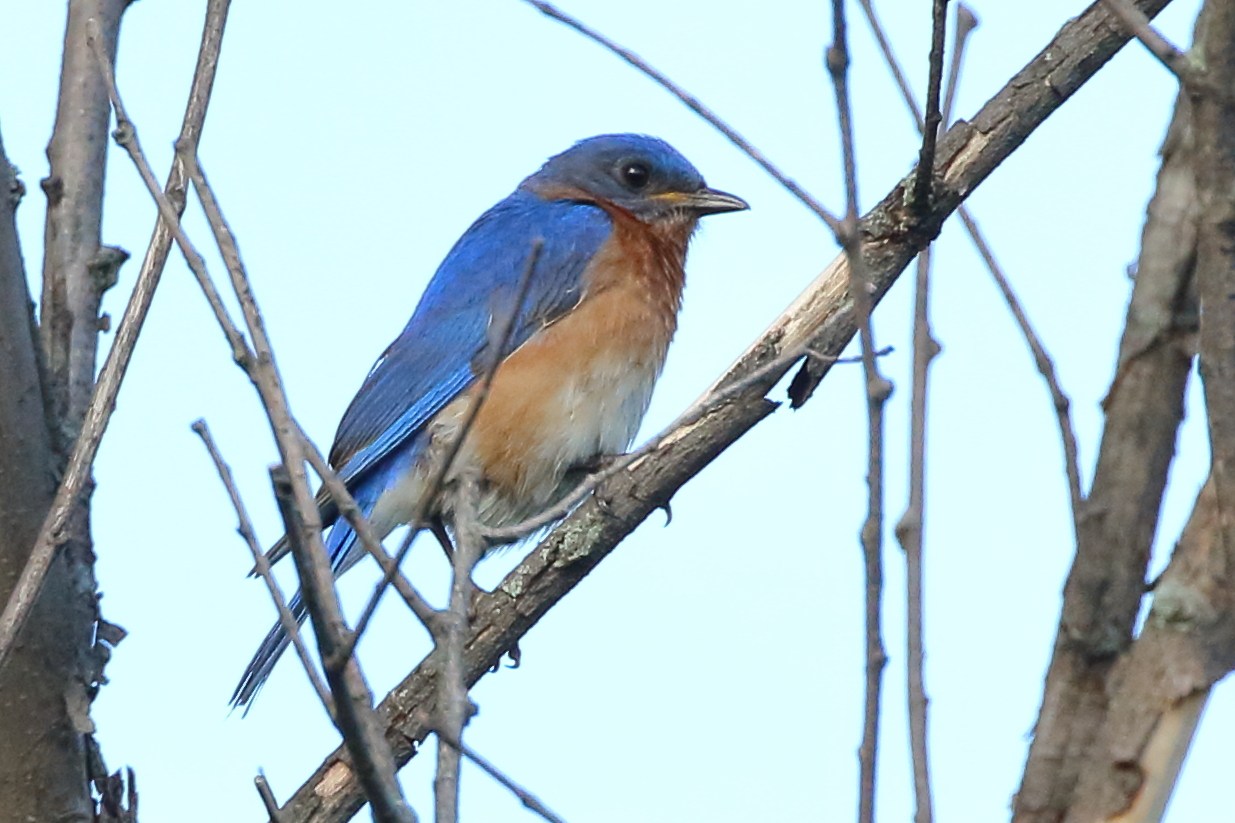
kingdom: Animalia
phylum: Chordata
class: Aves
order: Passeriformes
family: Turdidae
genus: Sialia
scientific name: Sialia sialis
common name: Eastern bluebird
